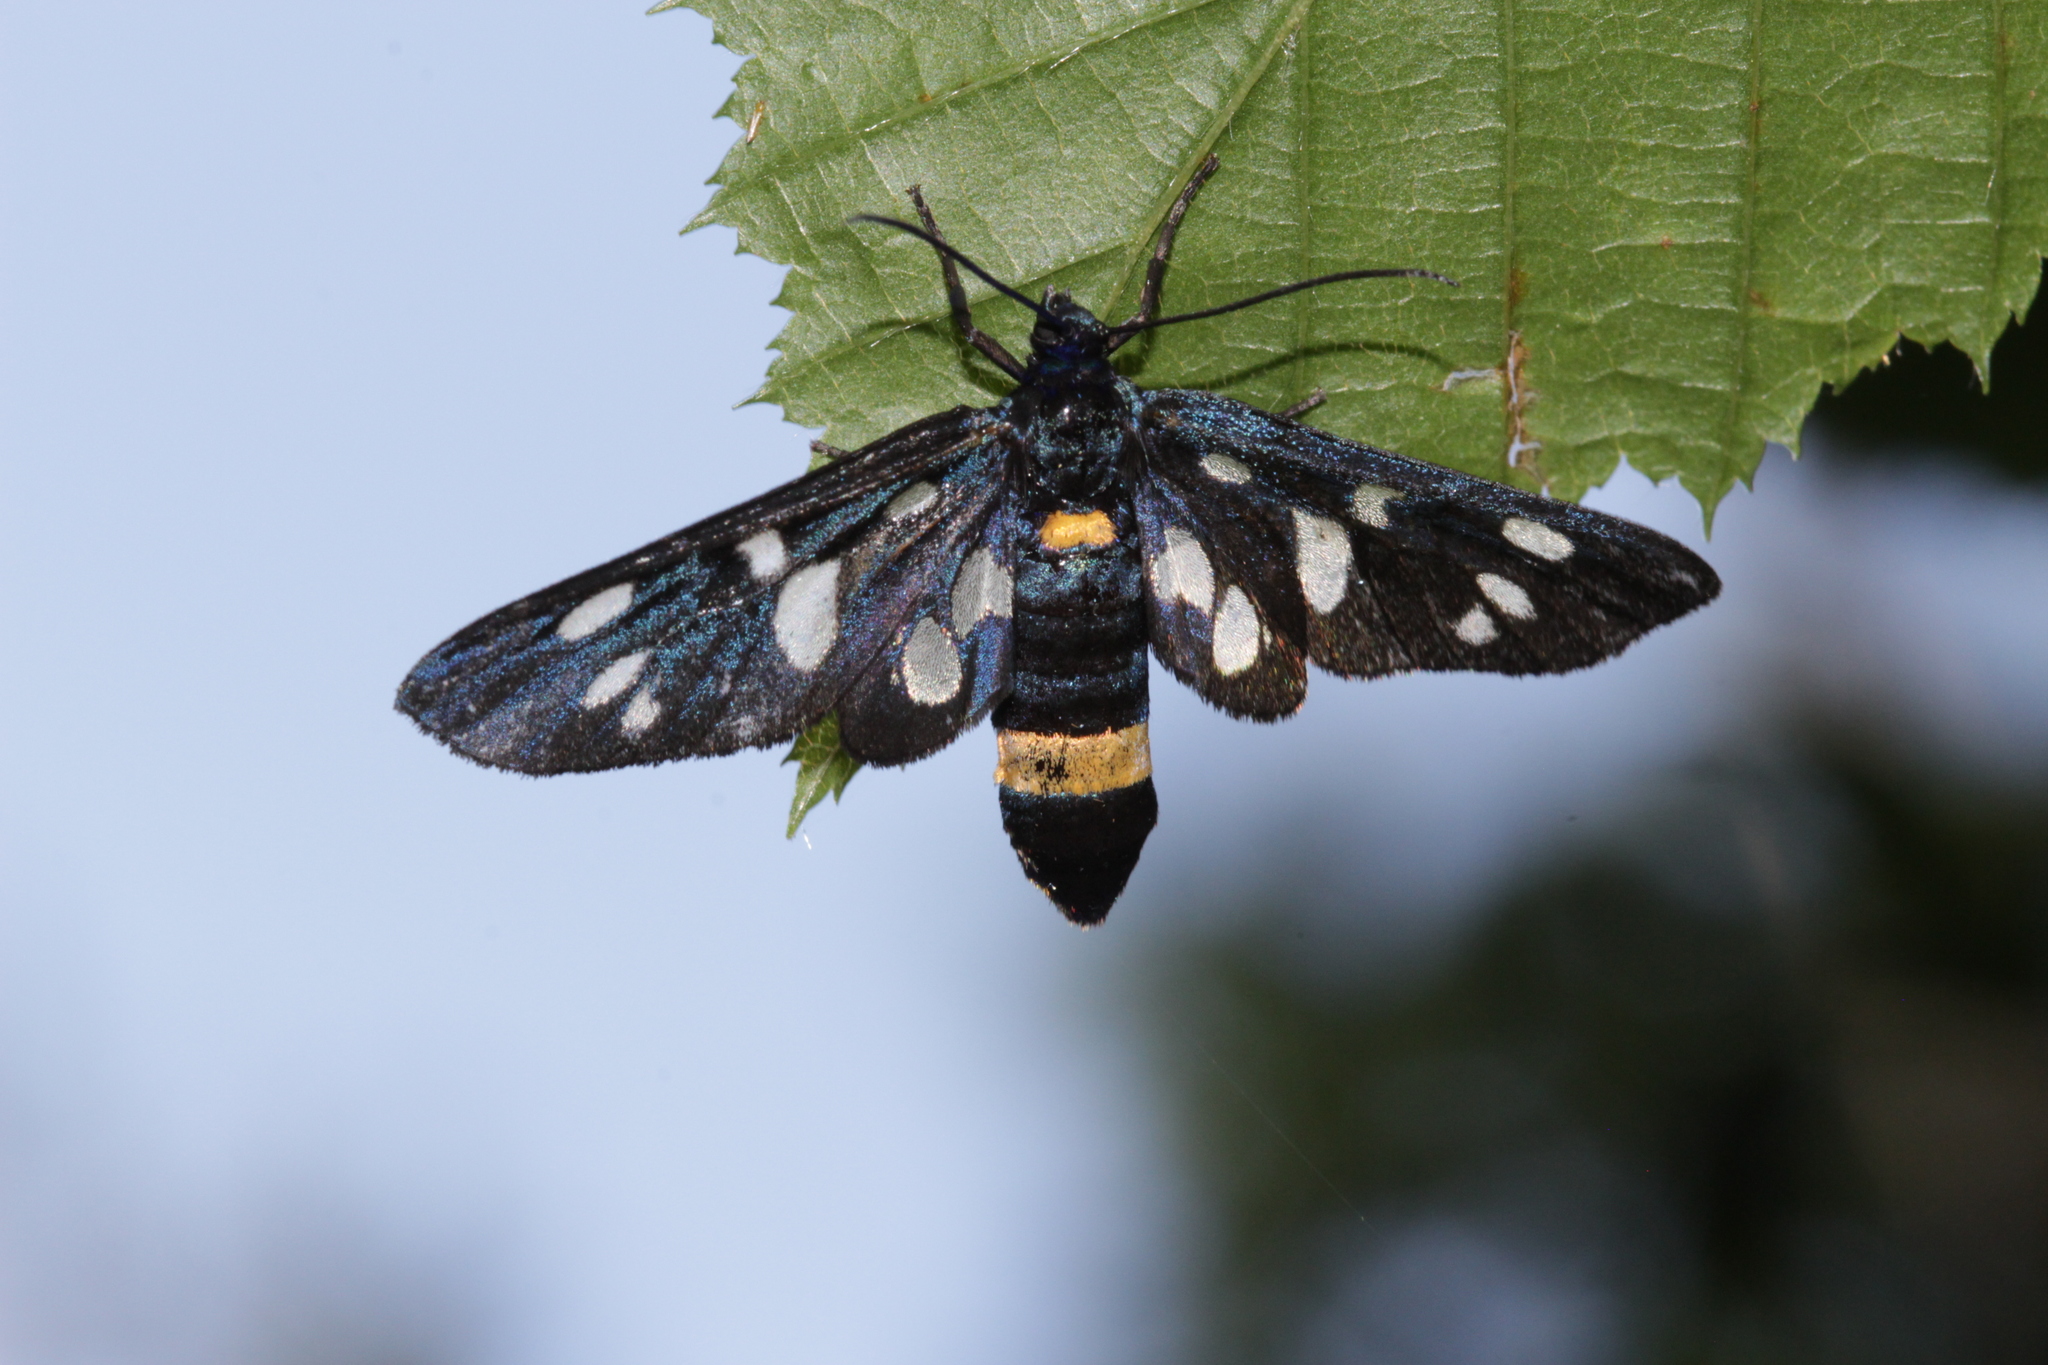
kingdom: Animalia
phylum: Arthropoda
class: Insecta
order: Lepidoptera
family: Erebidae
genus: Amata
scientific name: Amata phegea
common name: Nine-spotted
